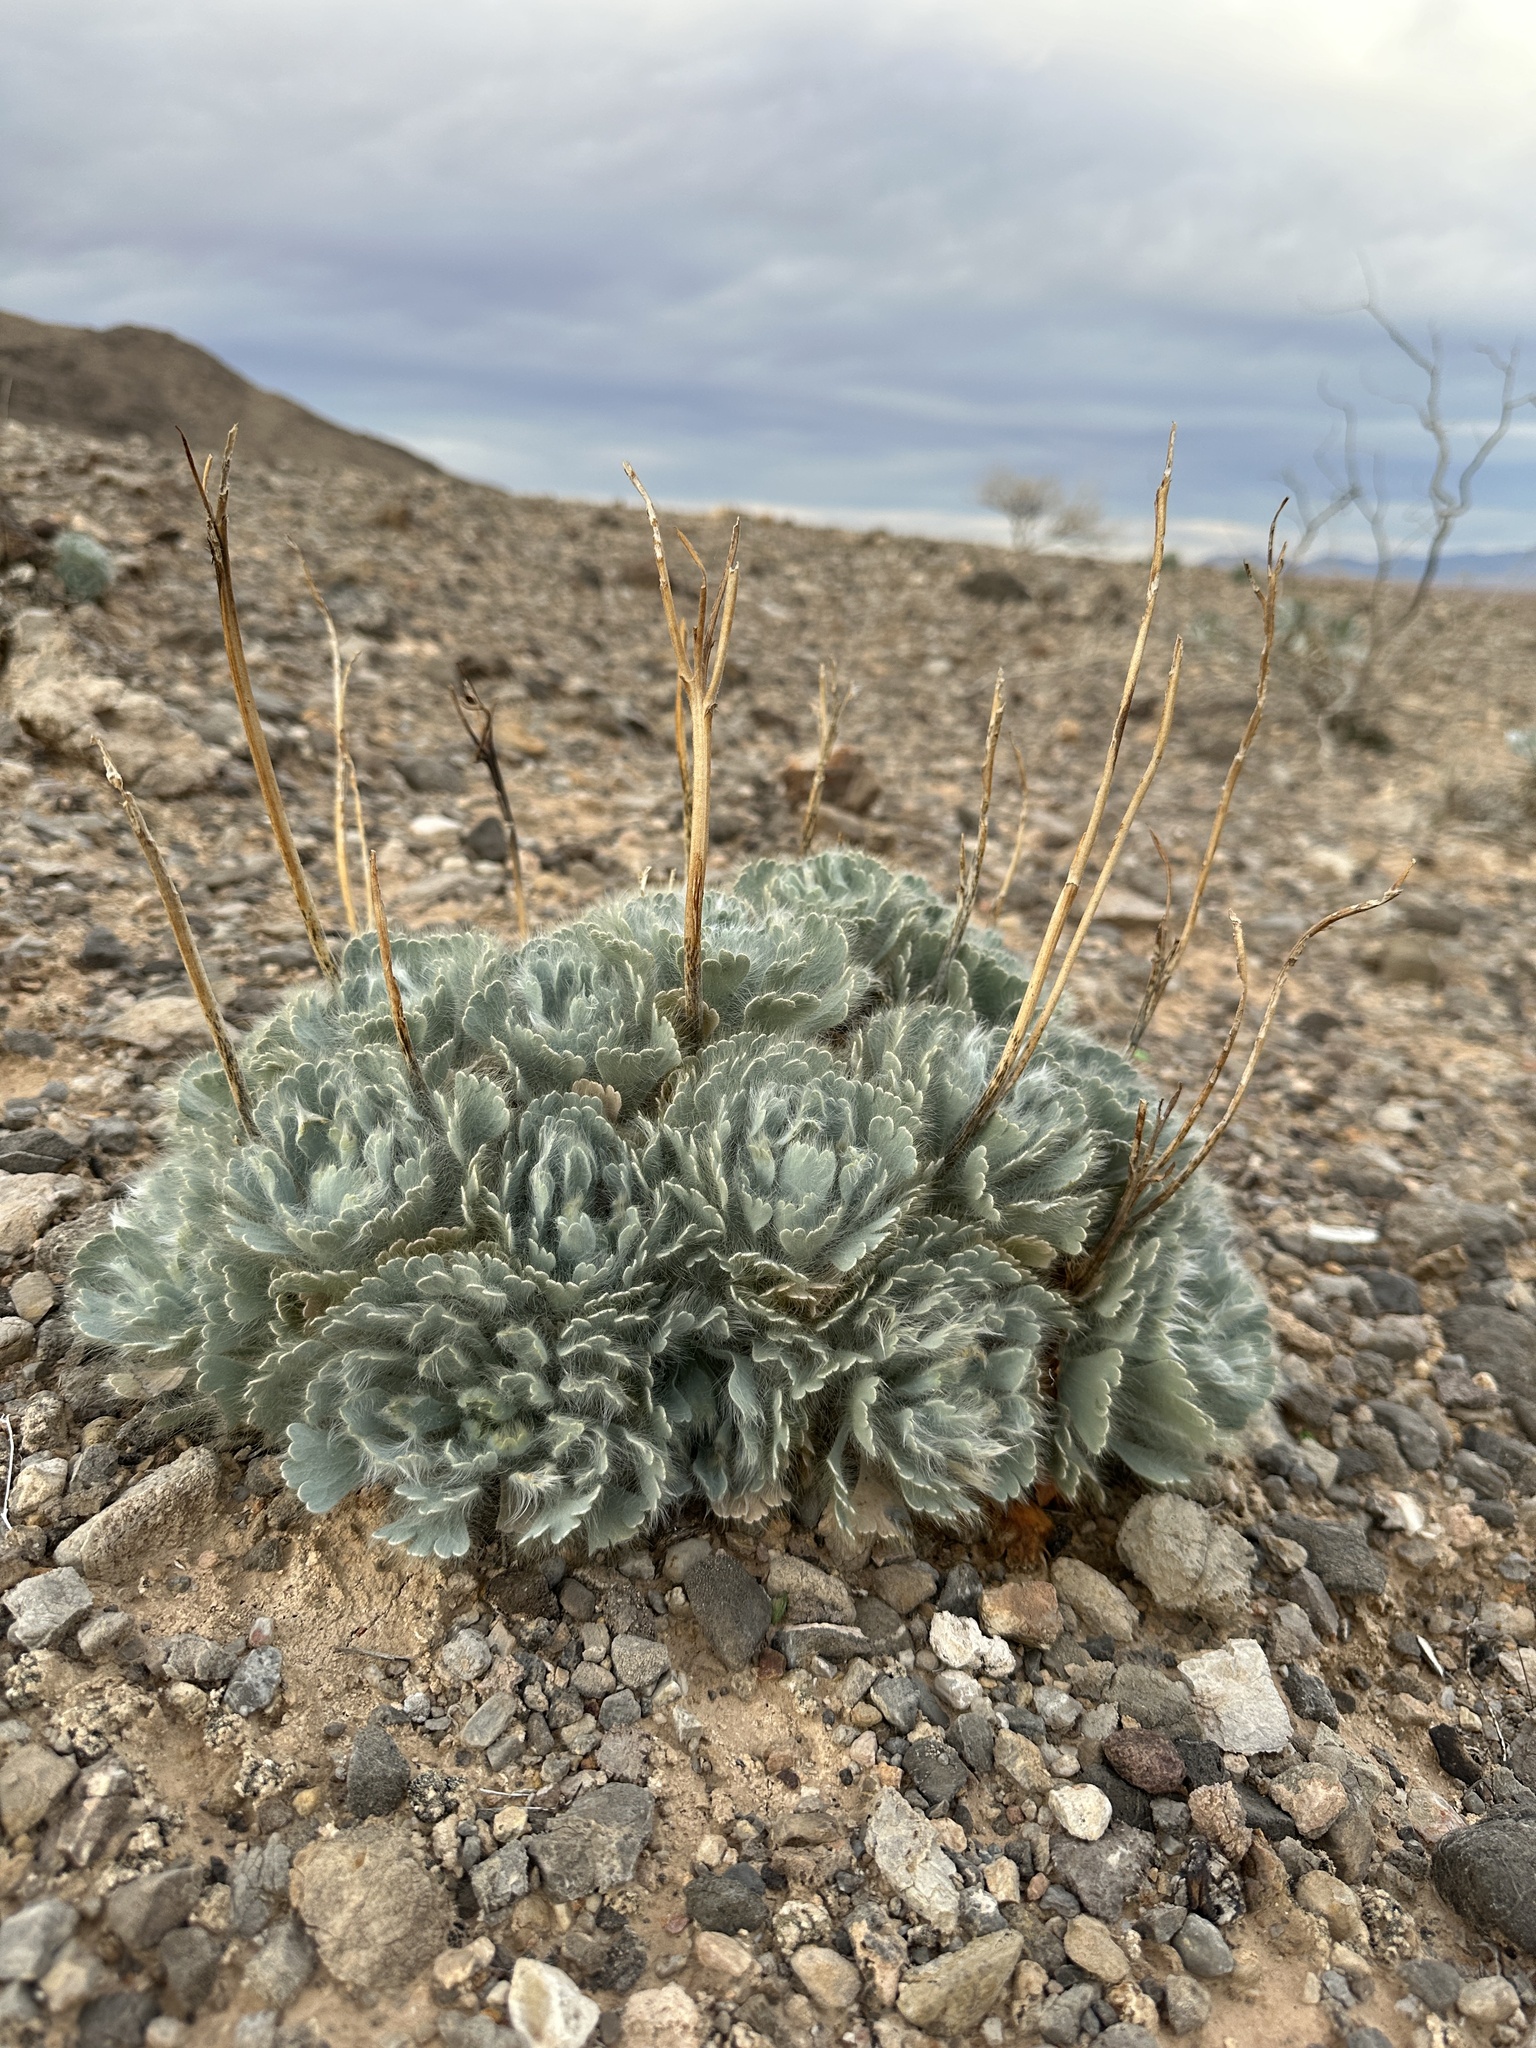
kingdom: Plantae
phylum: Tracheophyta
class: Magnoliopsida
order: Ranunculales
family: Papaveraceae
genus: Arctomecon
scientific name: Arctomecon californicum
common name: Golden bearclaw-poppy
